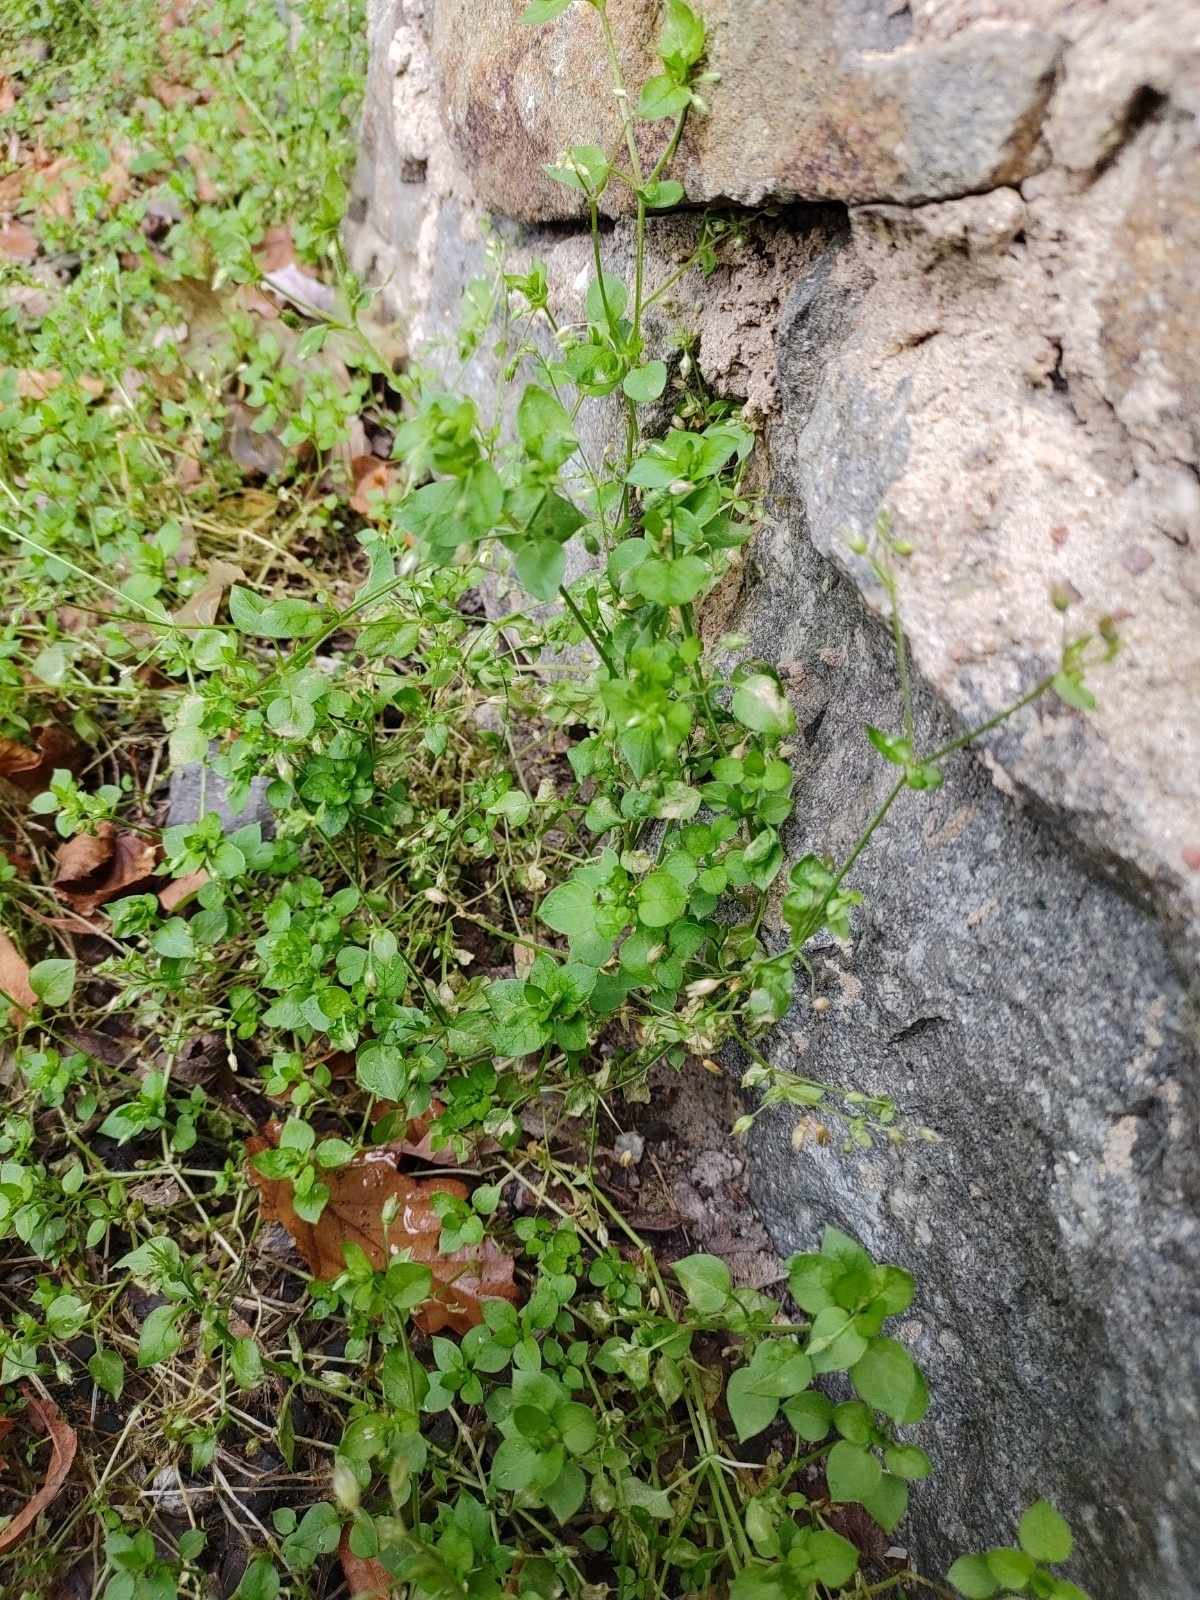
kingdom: Plantae
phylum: Tracheophyta
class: Magnoliopsida
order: Caryophyllales
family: Caryophyllaceae
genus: Stellaria
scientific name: Stellaria media
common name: Common chickweed
